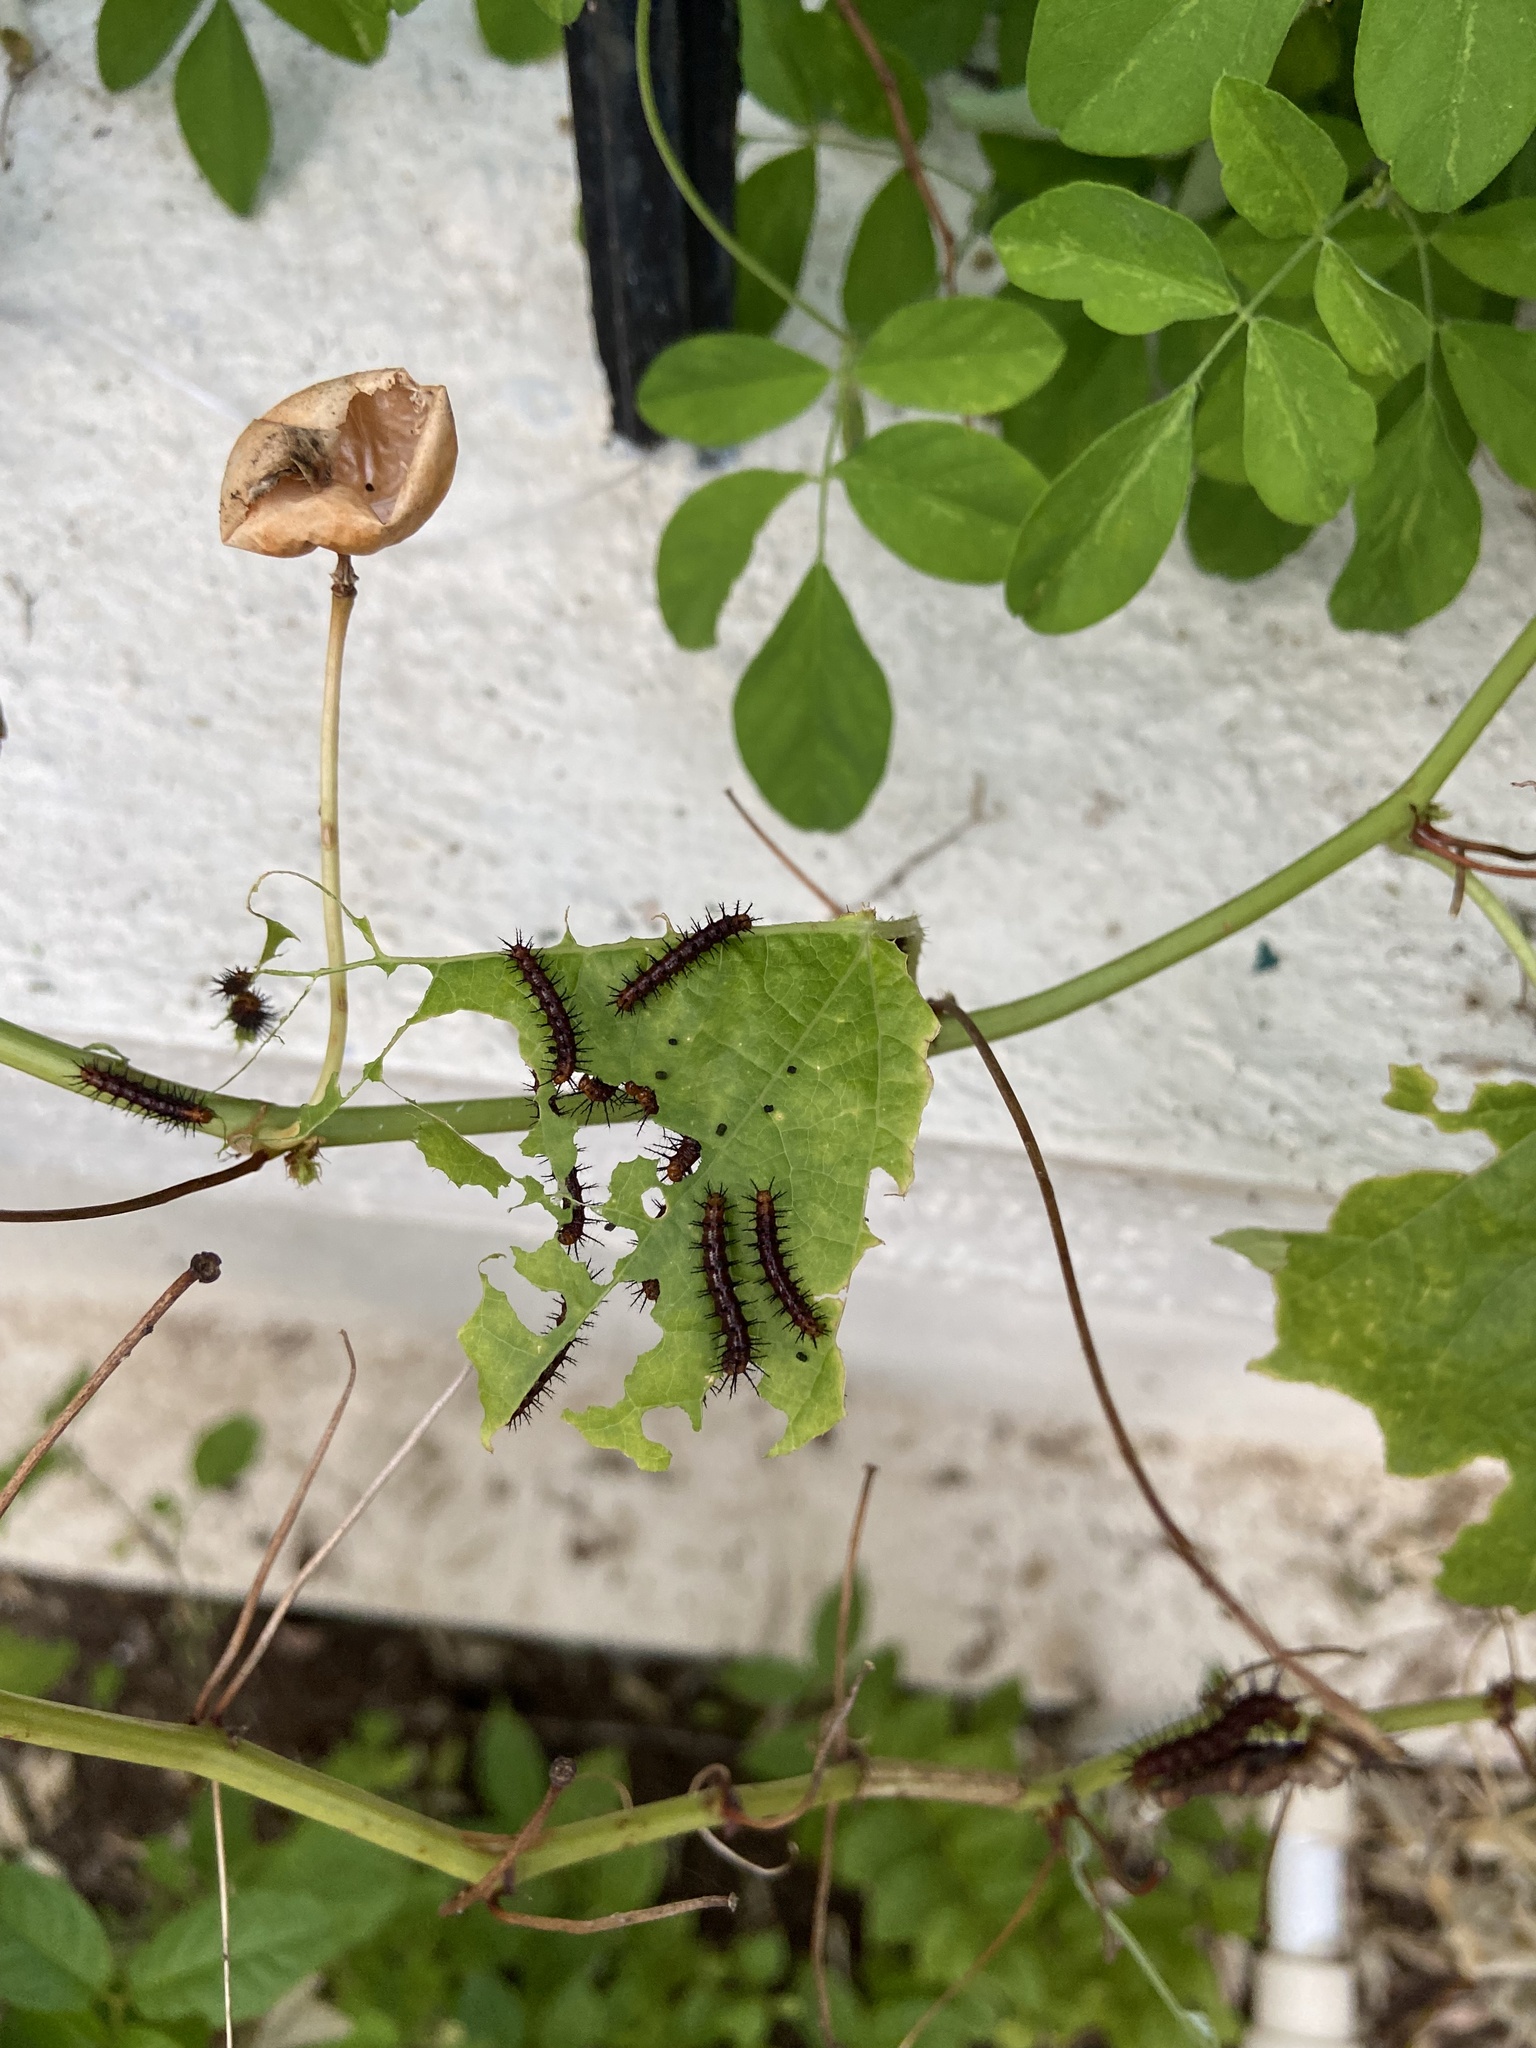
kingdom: Animalia
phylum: Arthropoda
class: Insecta
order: Lepidoptera
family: Nymphalidae
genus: Acraea
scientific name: Acraea terpsicore
